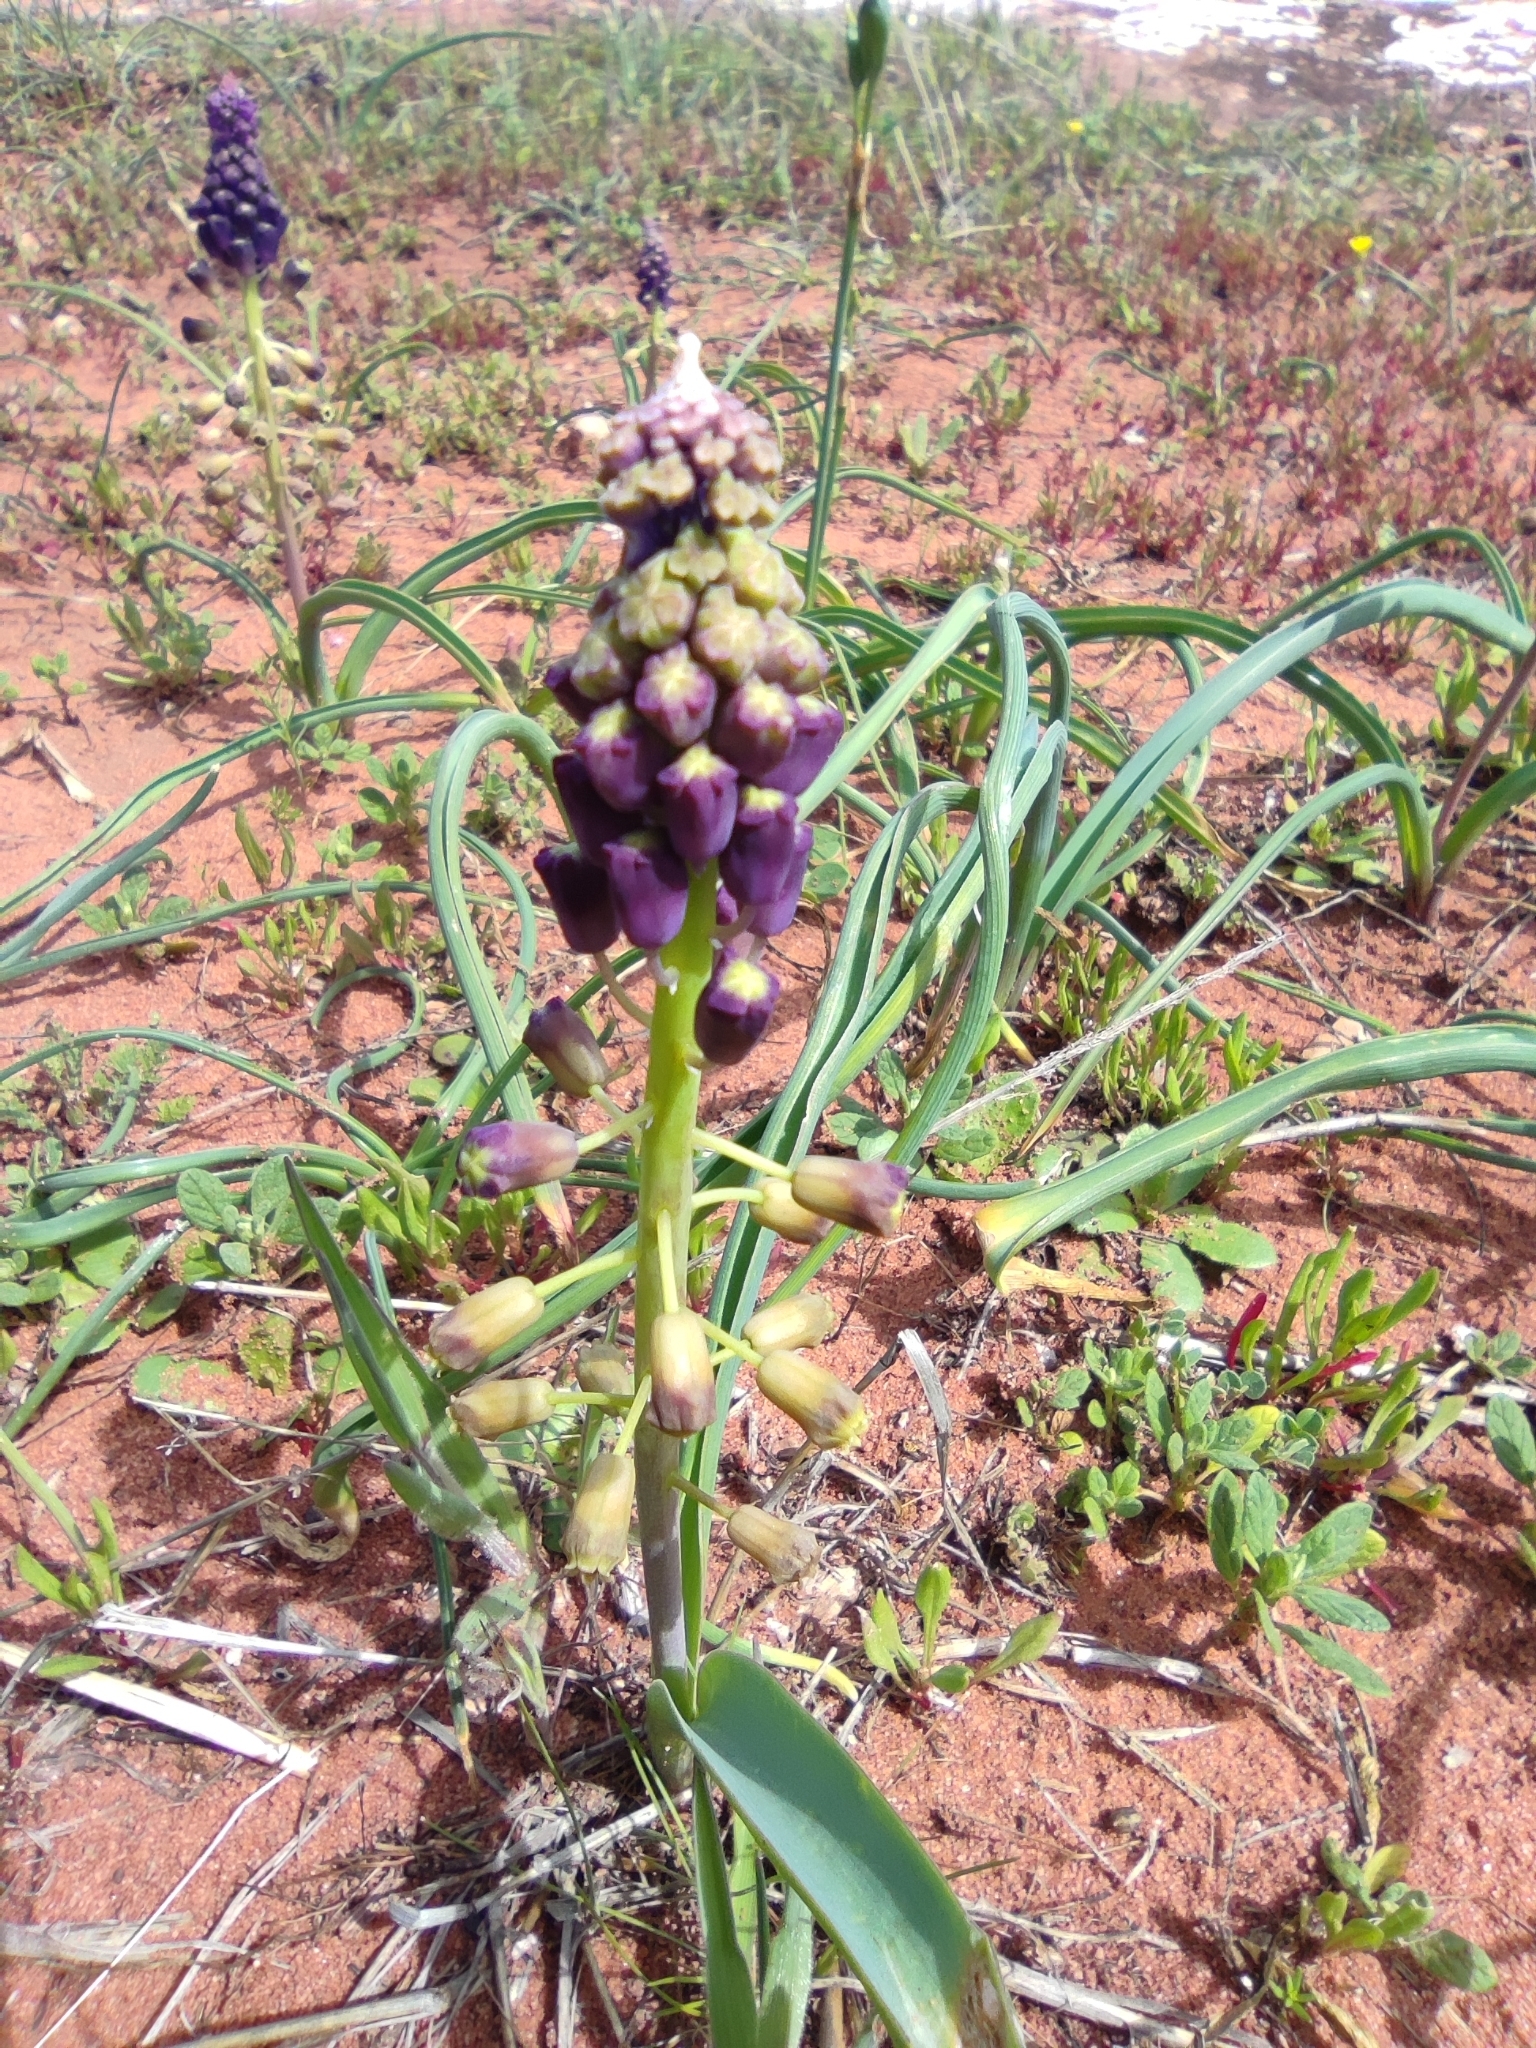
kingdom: Plantae
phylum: Tracheophyta
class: Liliopsida
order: Asparagales
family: Asparagaceae
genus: Muscari
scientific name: Muscari comosum
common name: Tassel hyacinth
